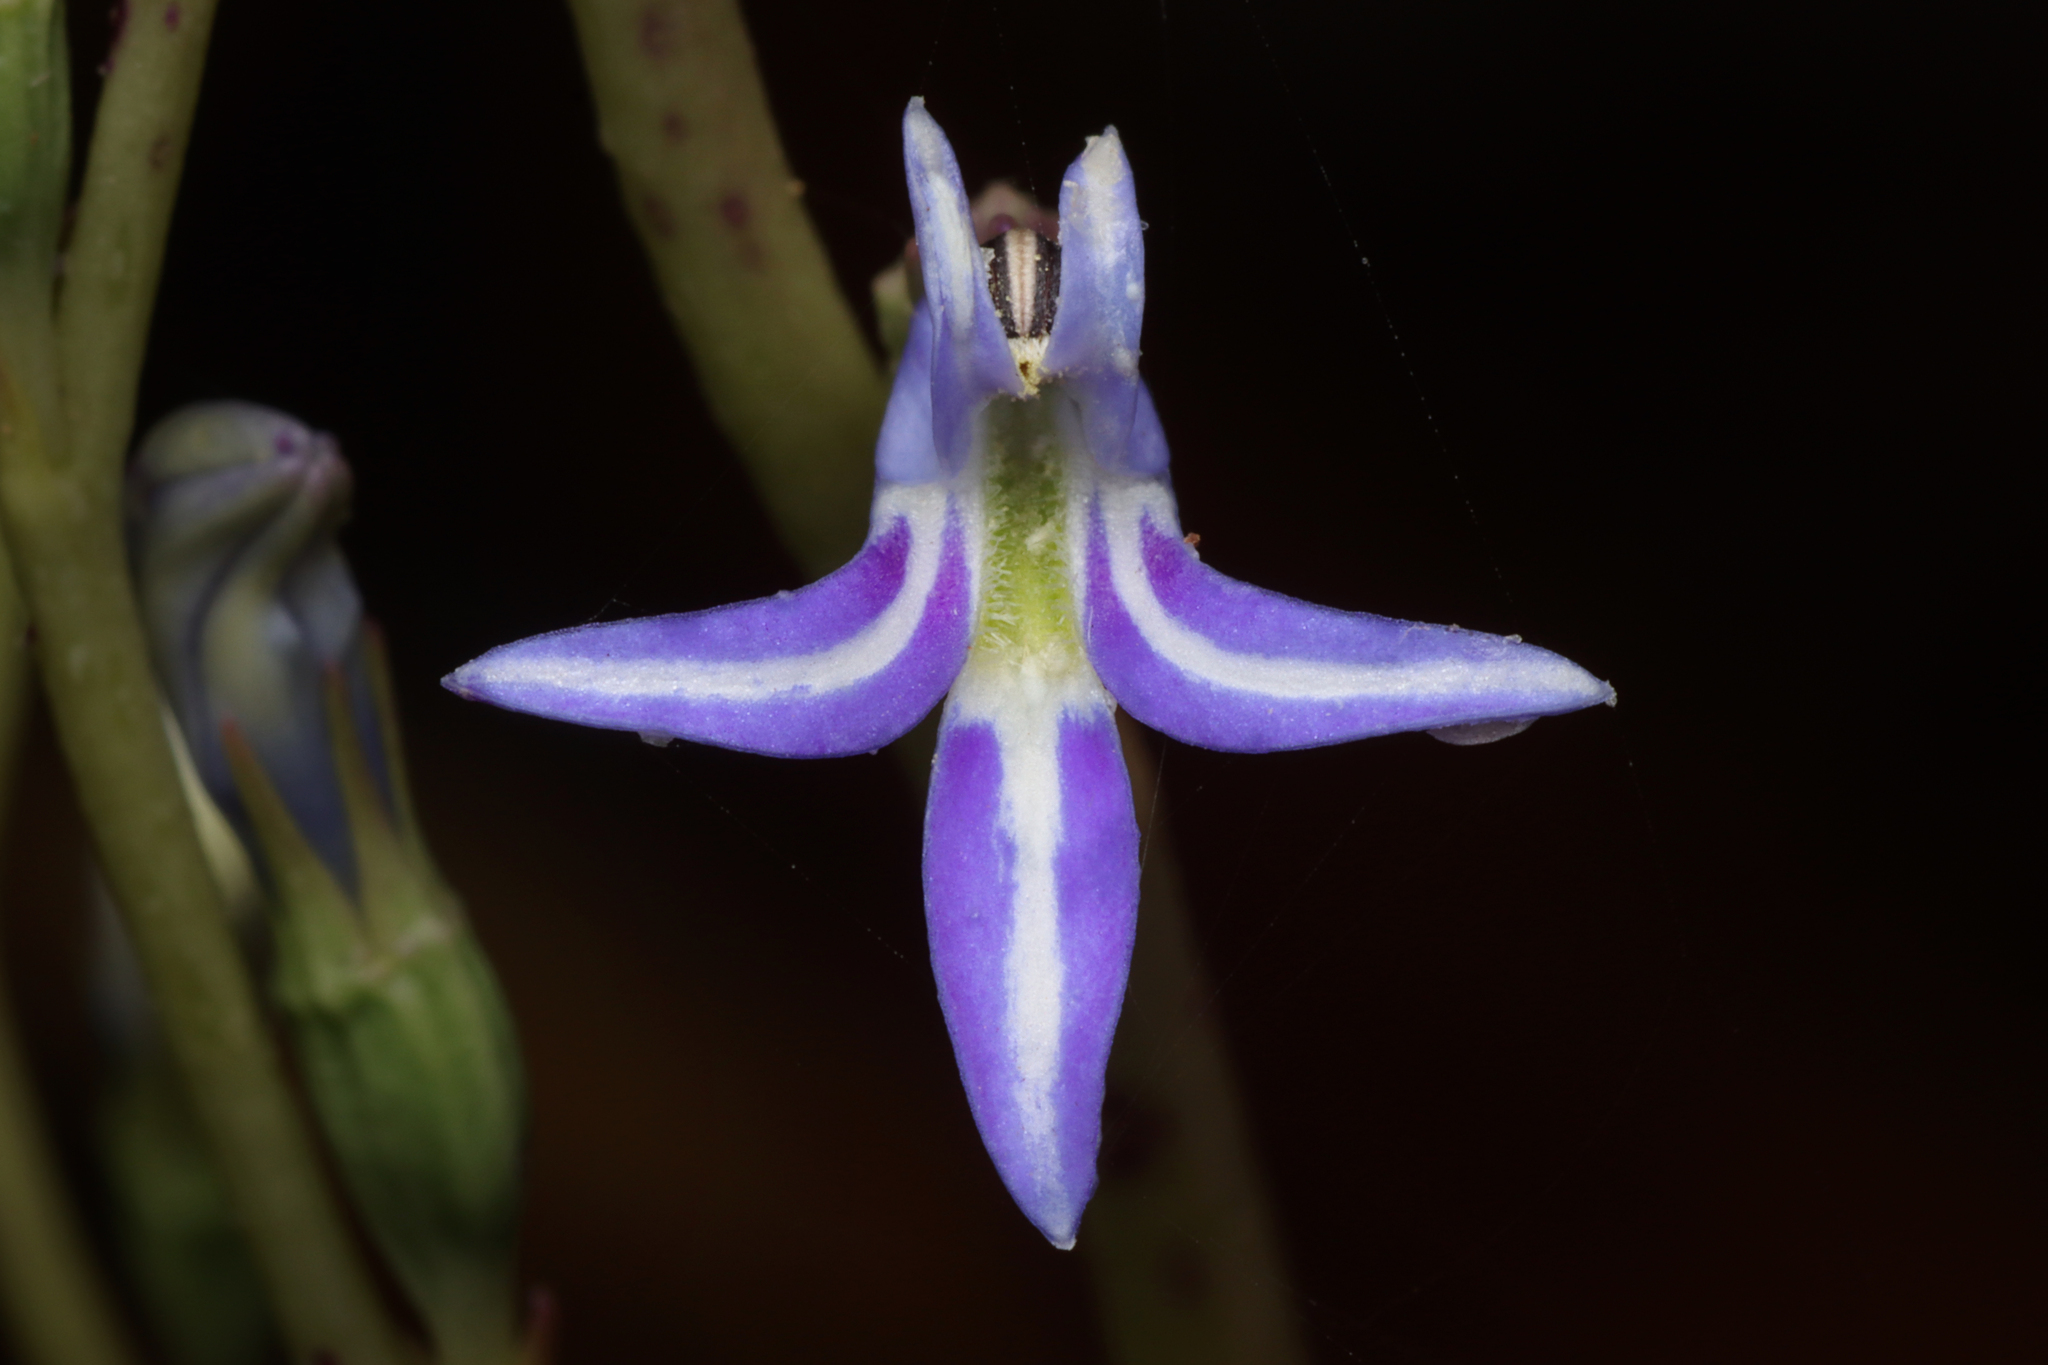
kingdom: Plantae
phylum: Tracheophyta
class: Magnoliopsida
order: Asterales
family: Campanulaceae
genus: Lobelia
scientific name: Lobelia gibbosa
